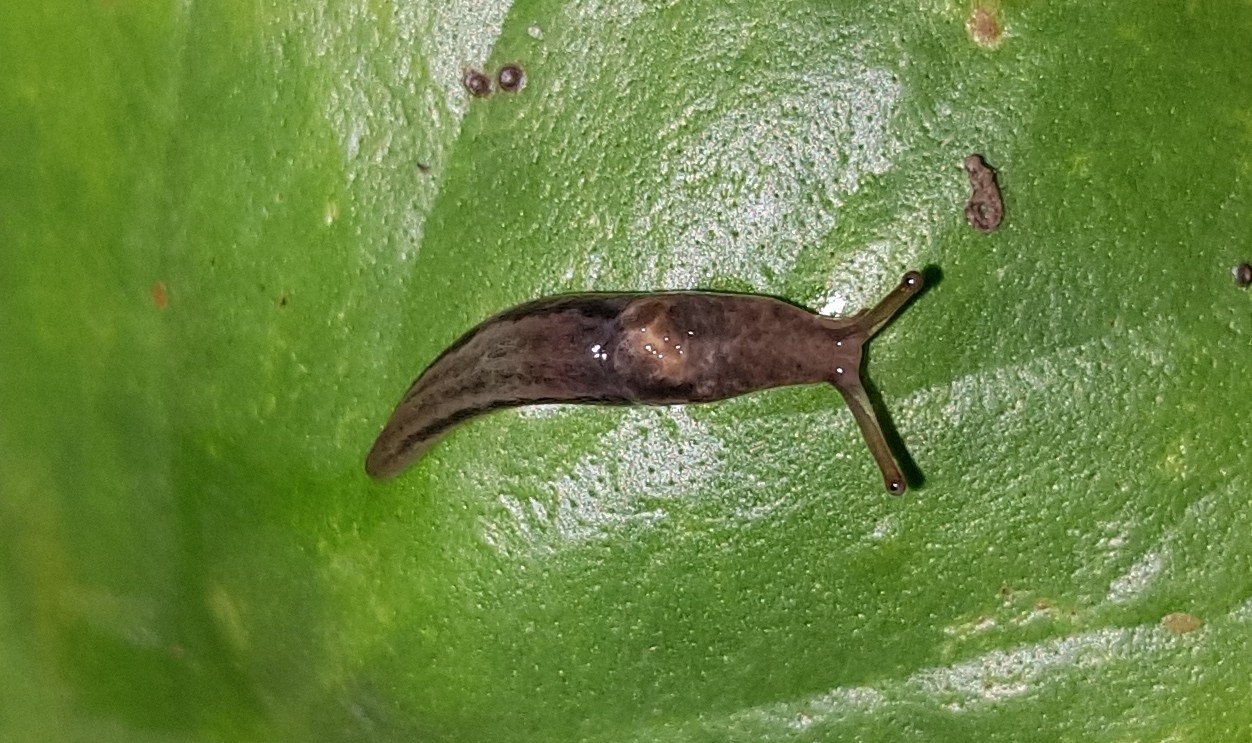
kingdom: Animalia
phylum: Mollusca
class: Gastropoda
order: Stylommatophora
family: Limacidae
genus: Limax
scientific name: Limax maximus
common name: Great grey slug
